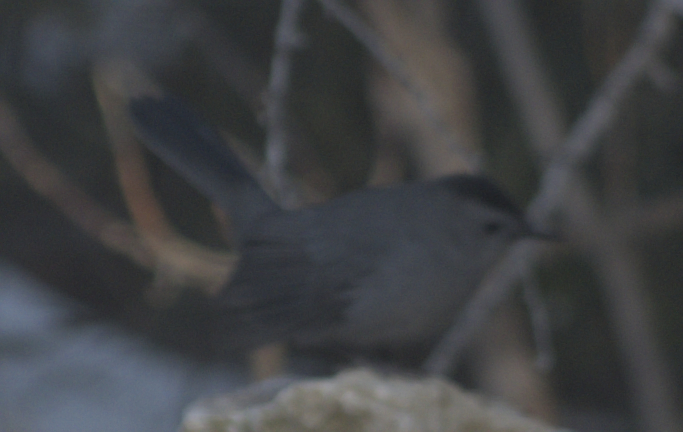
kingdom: Animalia
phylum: Chordata
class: Aves
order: Passeriformes
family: Mimidae
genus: Dumetella
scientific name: Dumetella carolinensis
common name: Gray catbird
